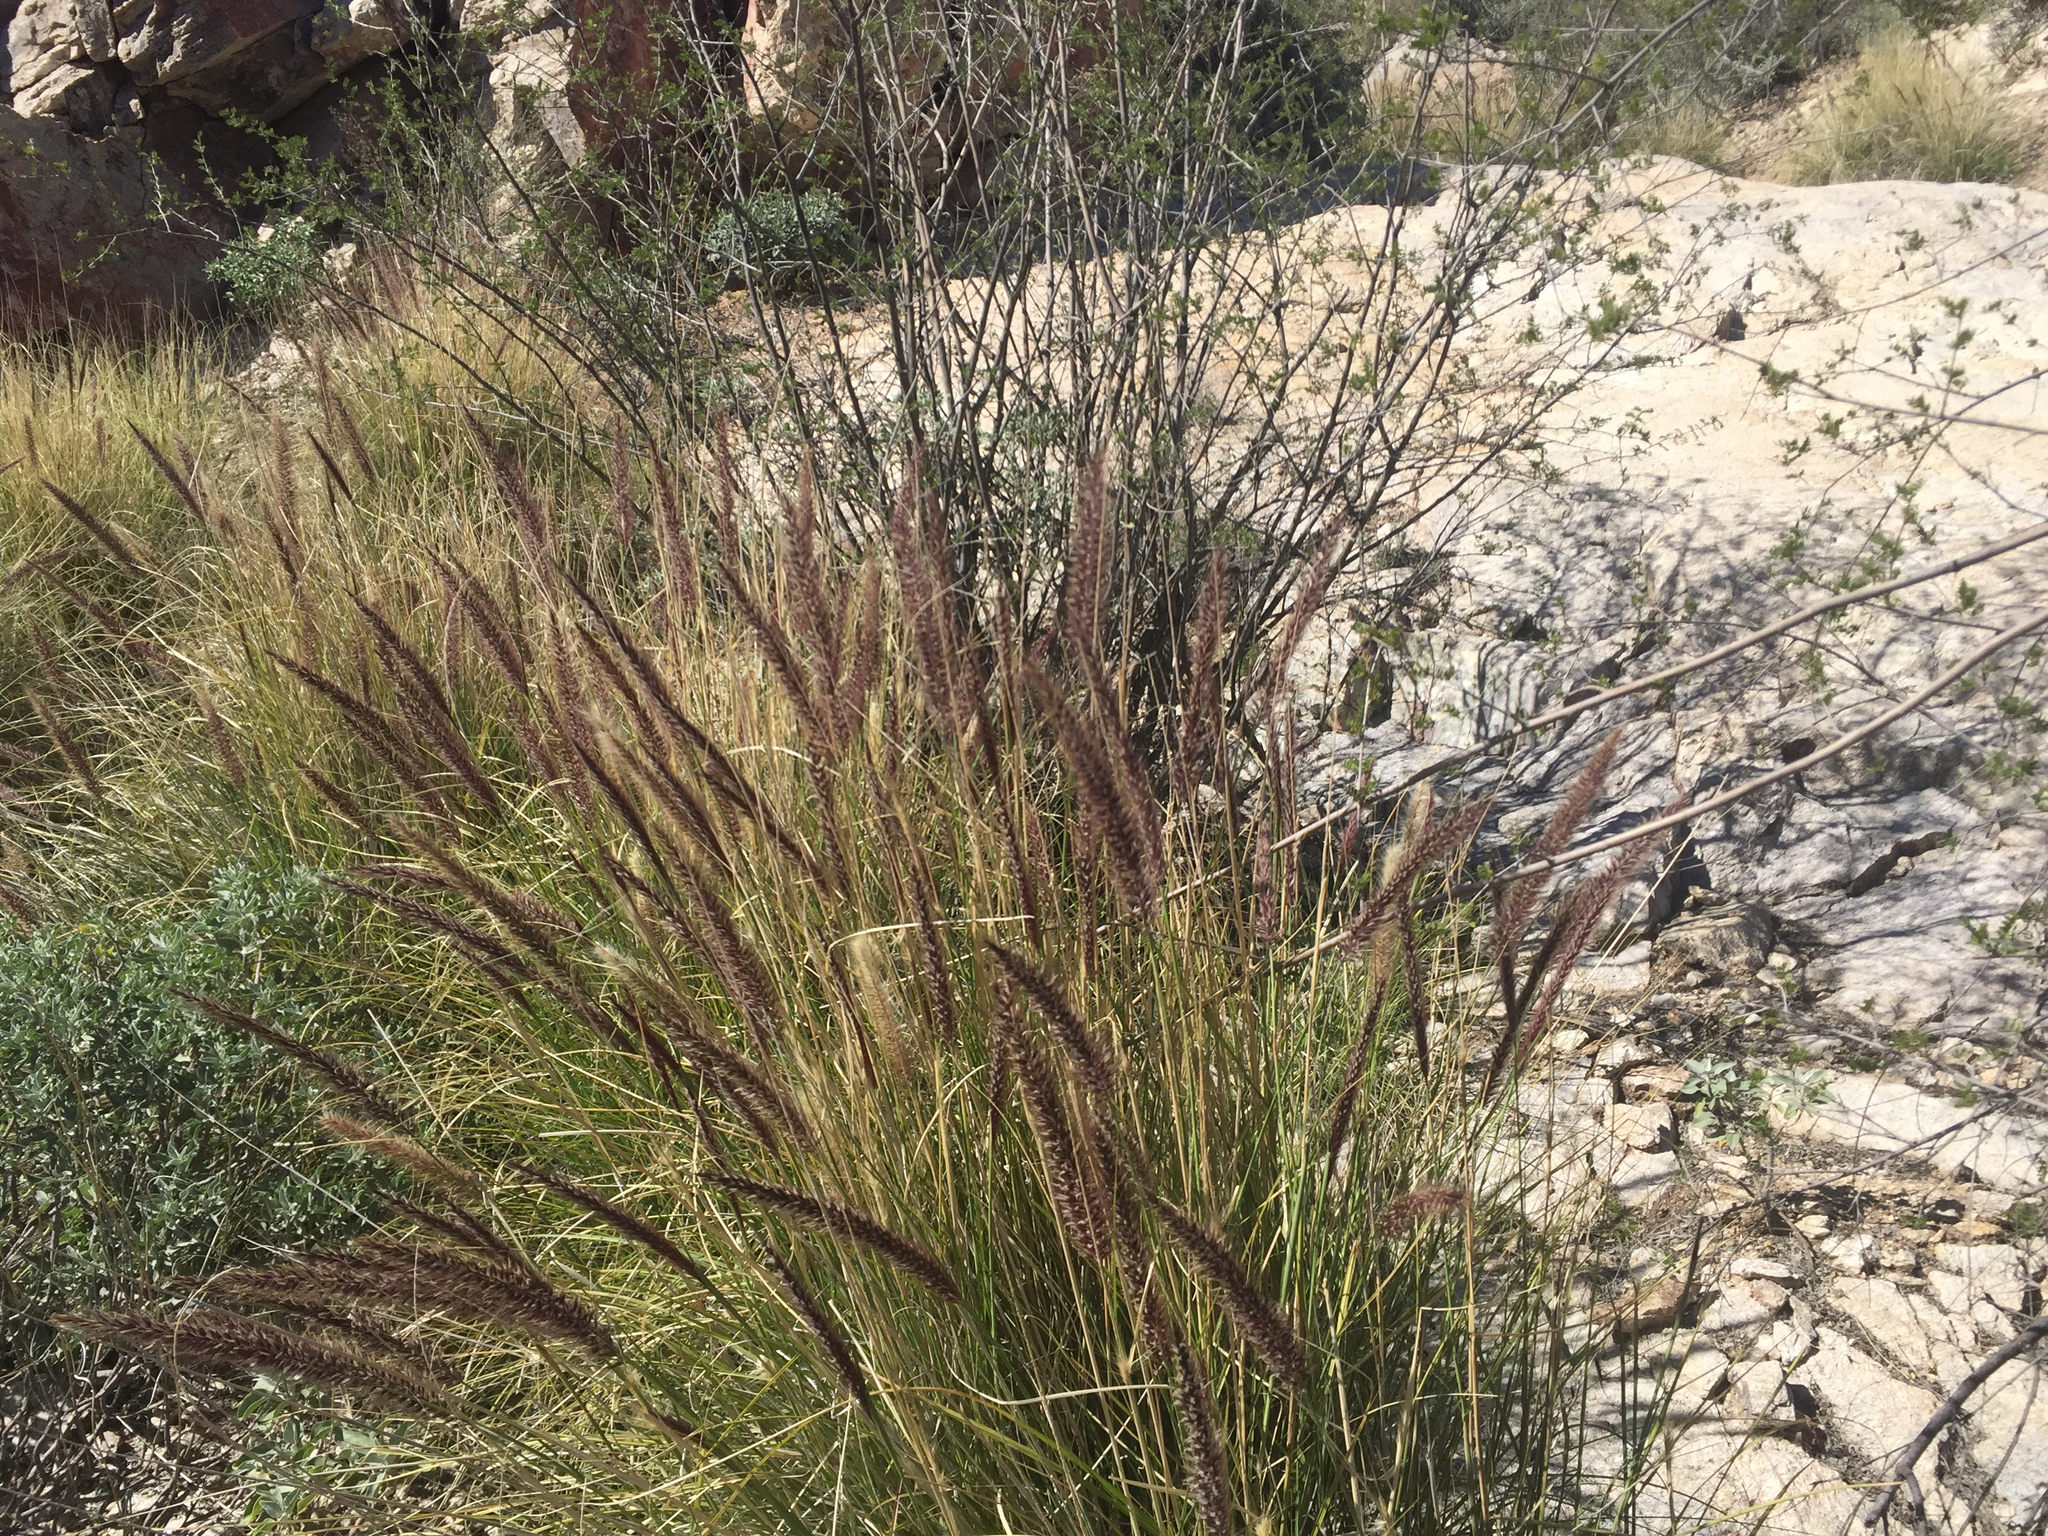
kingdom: Plantae
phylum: Tracheophyta
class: Liliopsida
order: Poales
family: Poaceae
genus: Cenchrus
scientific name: Cenchrus setaceus
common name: Crimson fountaingrass
